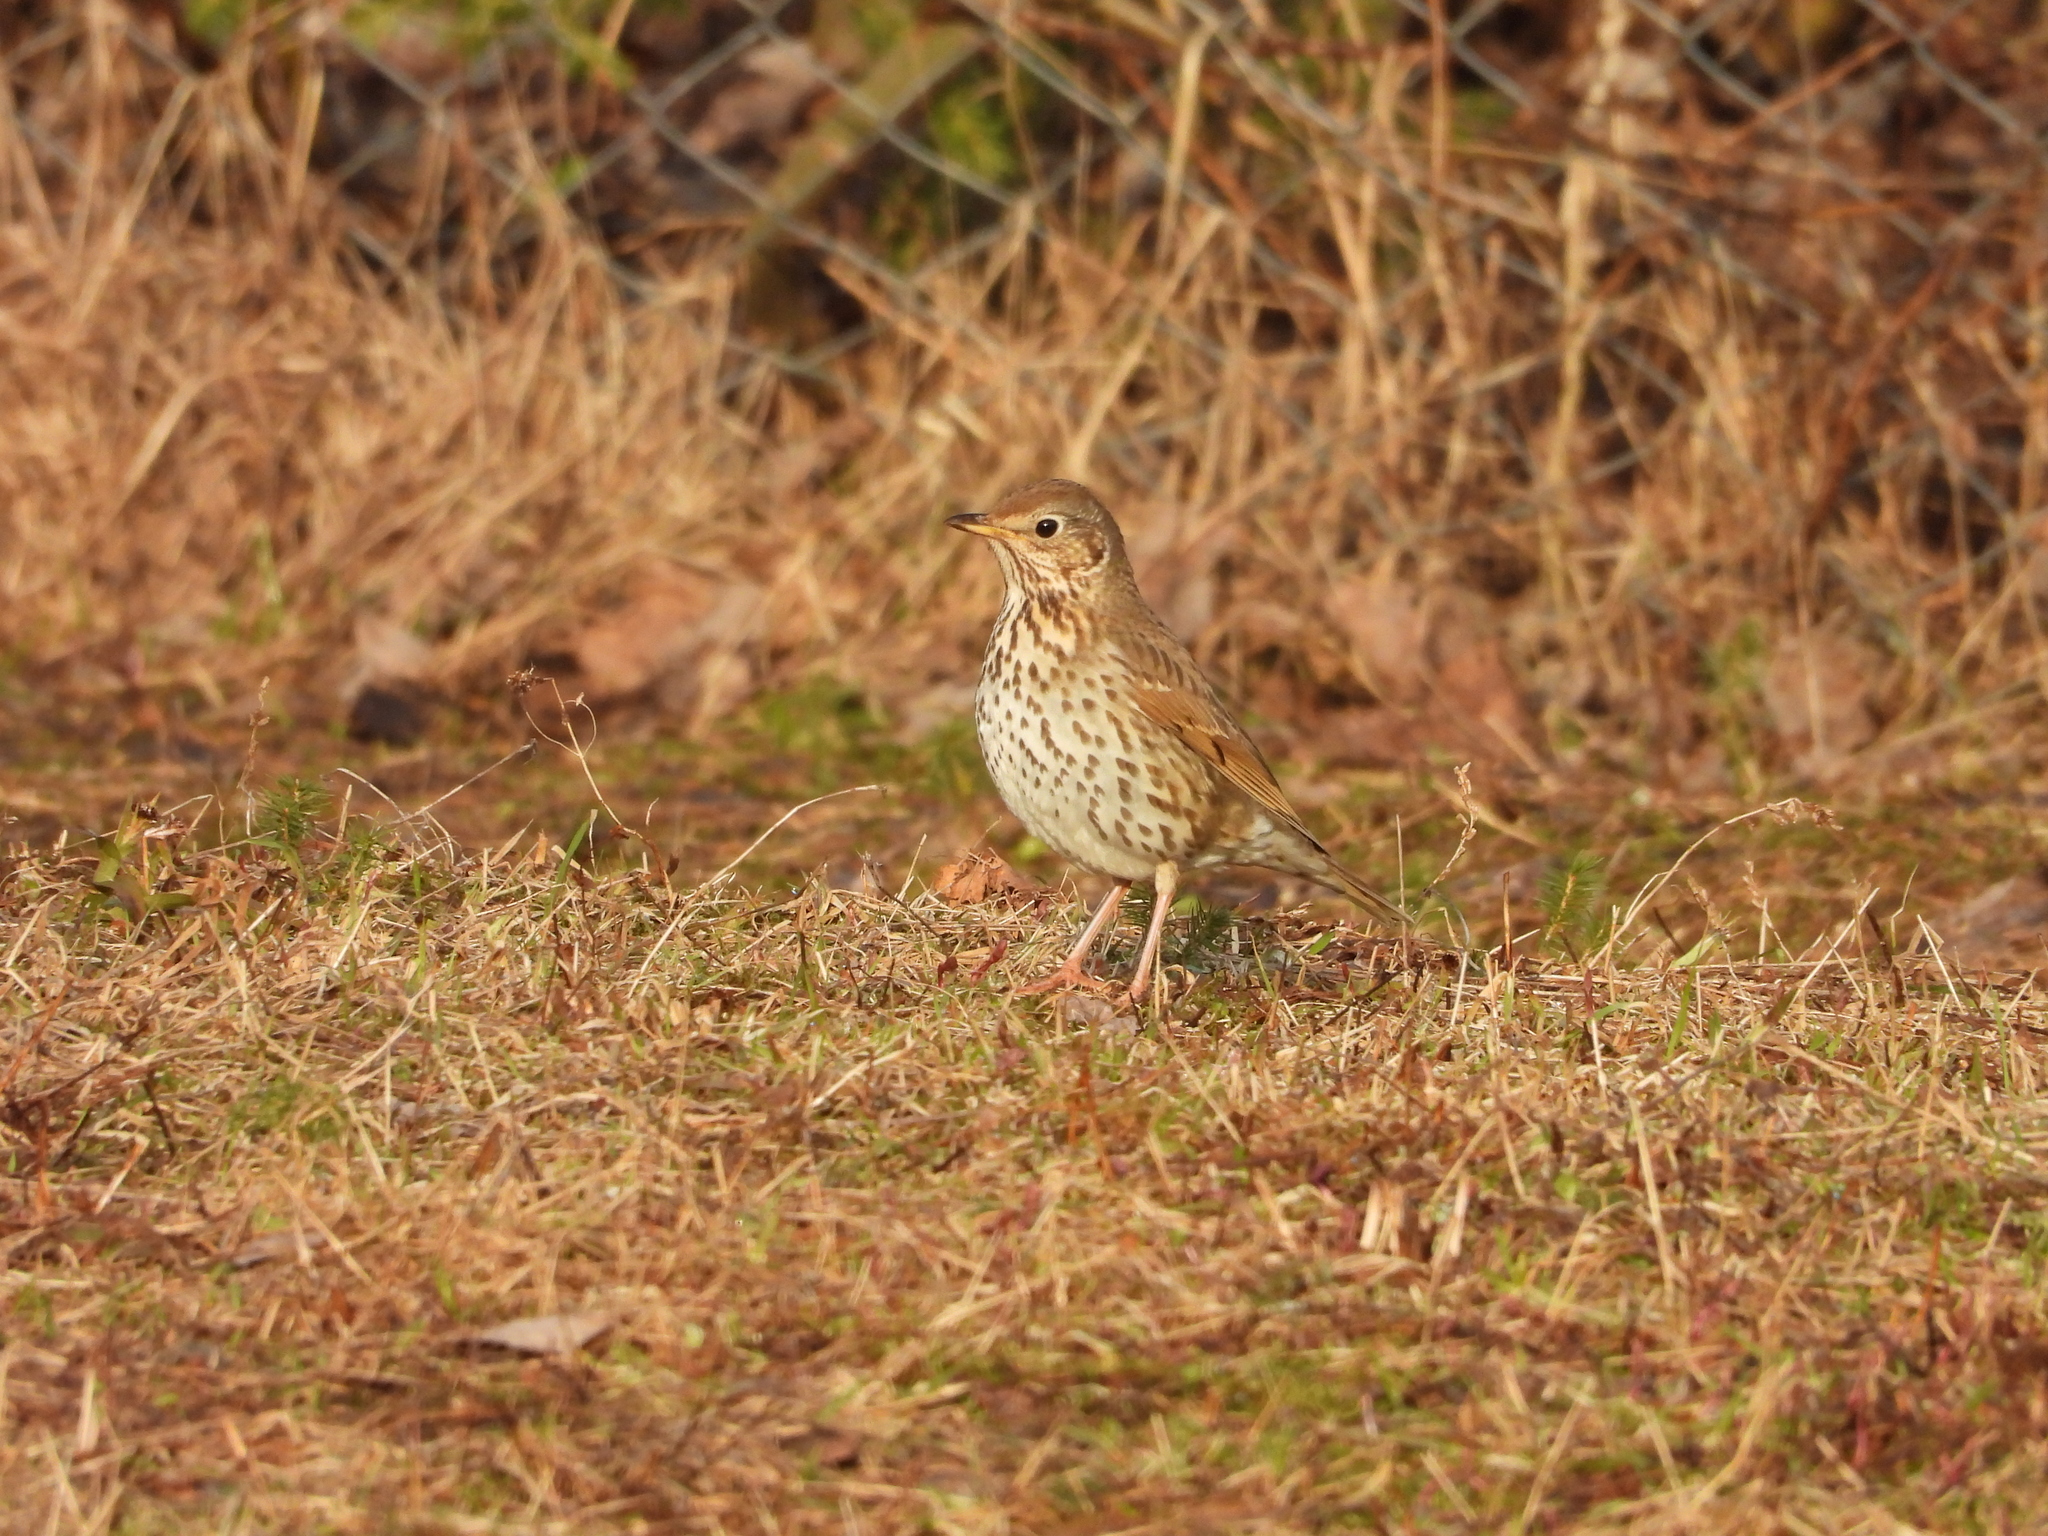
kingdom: Animalia
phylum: Chordata
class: Aves
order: Passeriformes
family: Turdidae
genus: Turdus
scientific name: Turdus philomelos
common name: Song thrush
